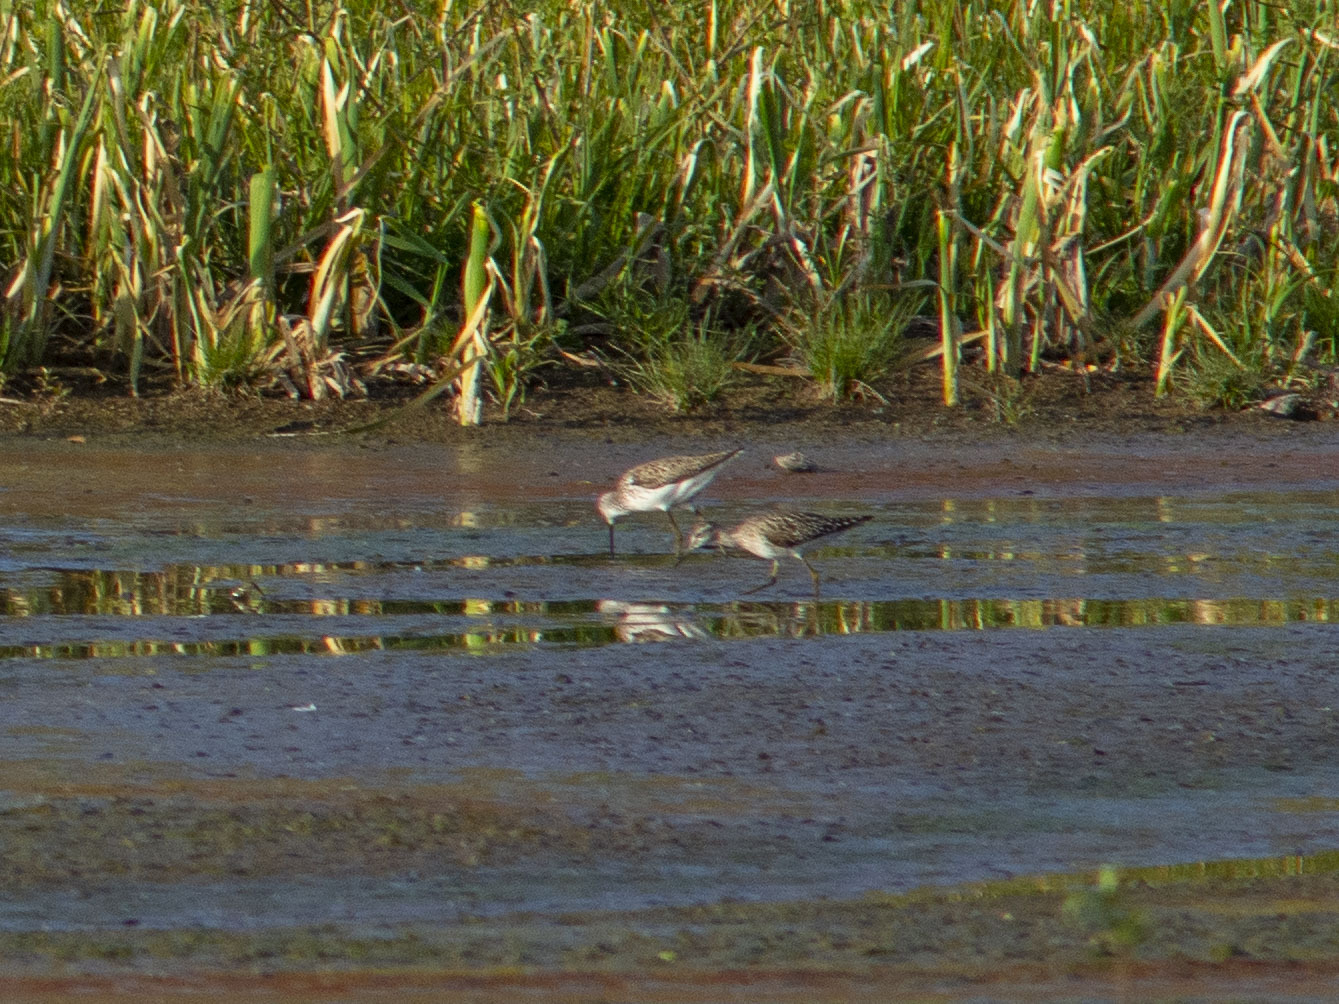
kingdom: Animalia
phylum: Chordata
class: Aves
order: Charadriiformes
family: Scolopacidae
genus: Tringa
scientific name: Tringa stagnatilis
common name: Marsh sandpiper
